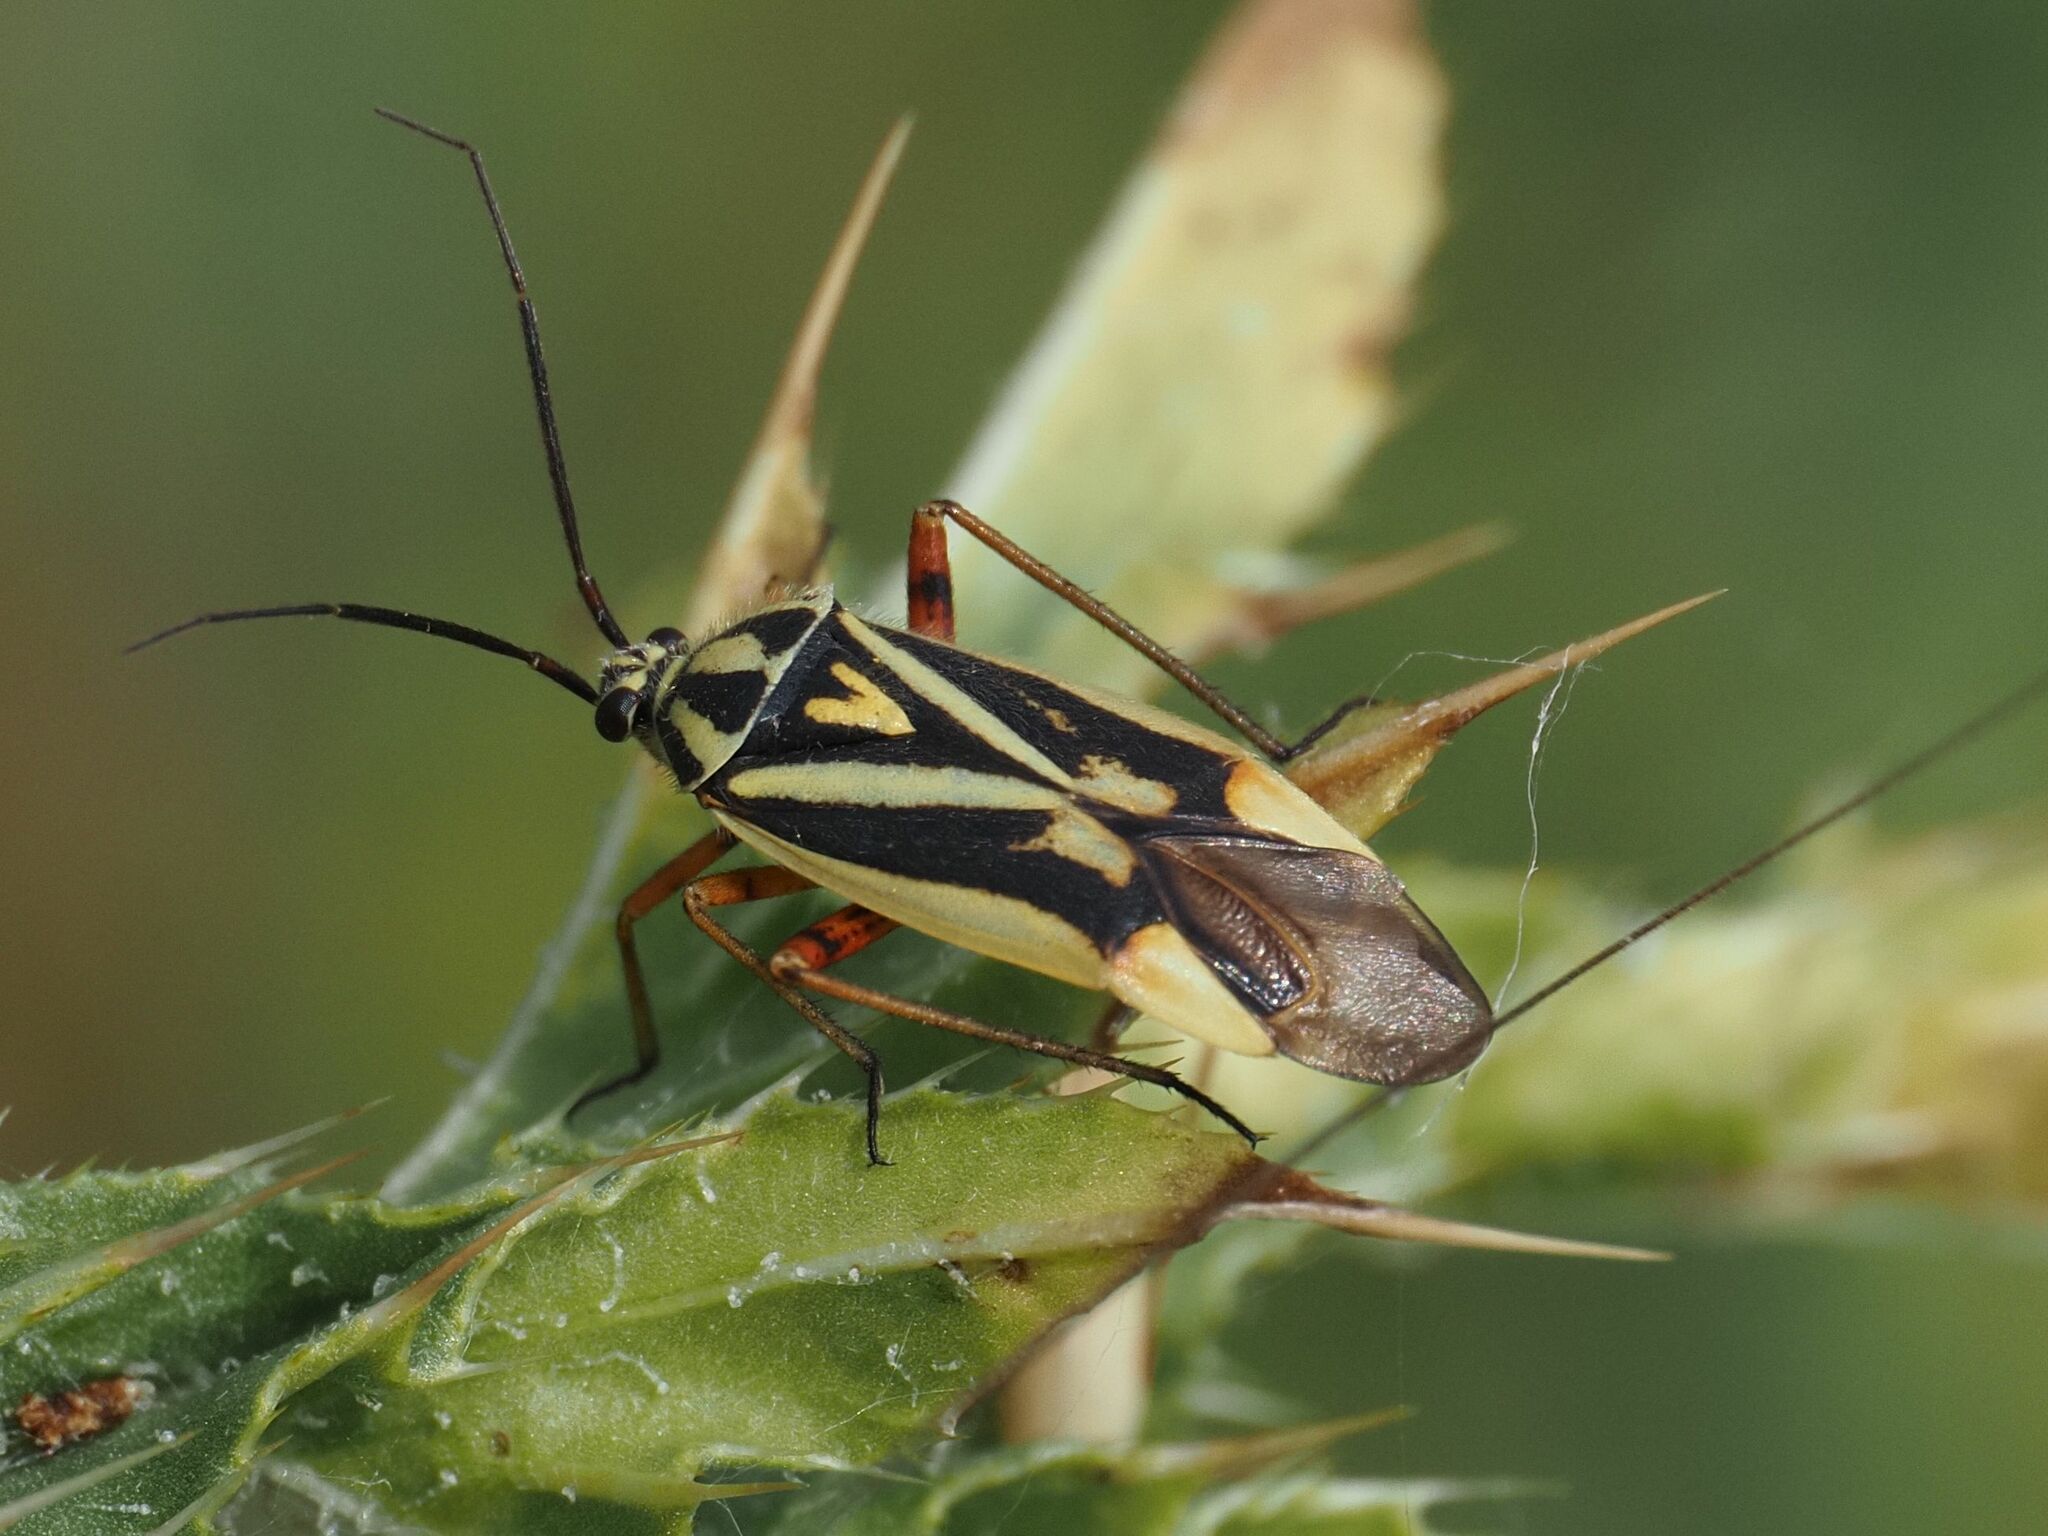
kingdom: Animalia
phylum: Arthropoda
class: Insecta
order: Hemiptera
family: Miridae
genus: Brachycoleus
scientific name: Brachycoleus decolor
